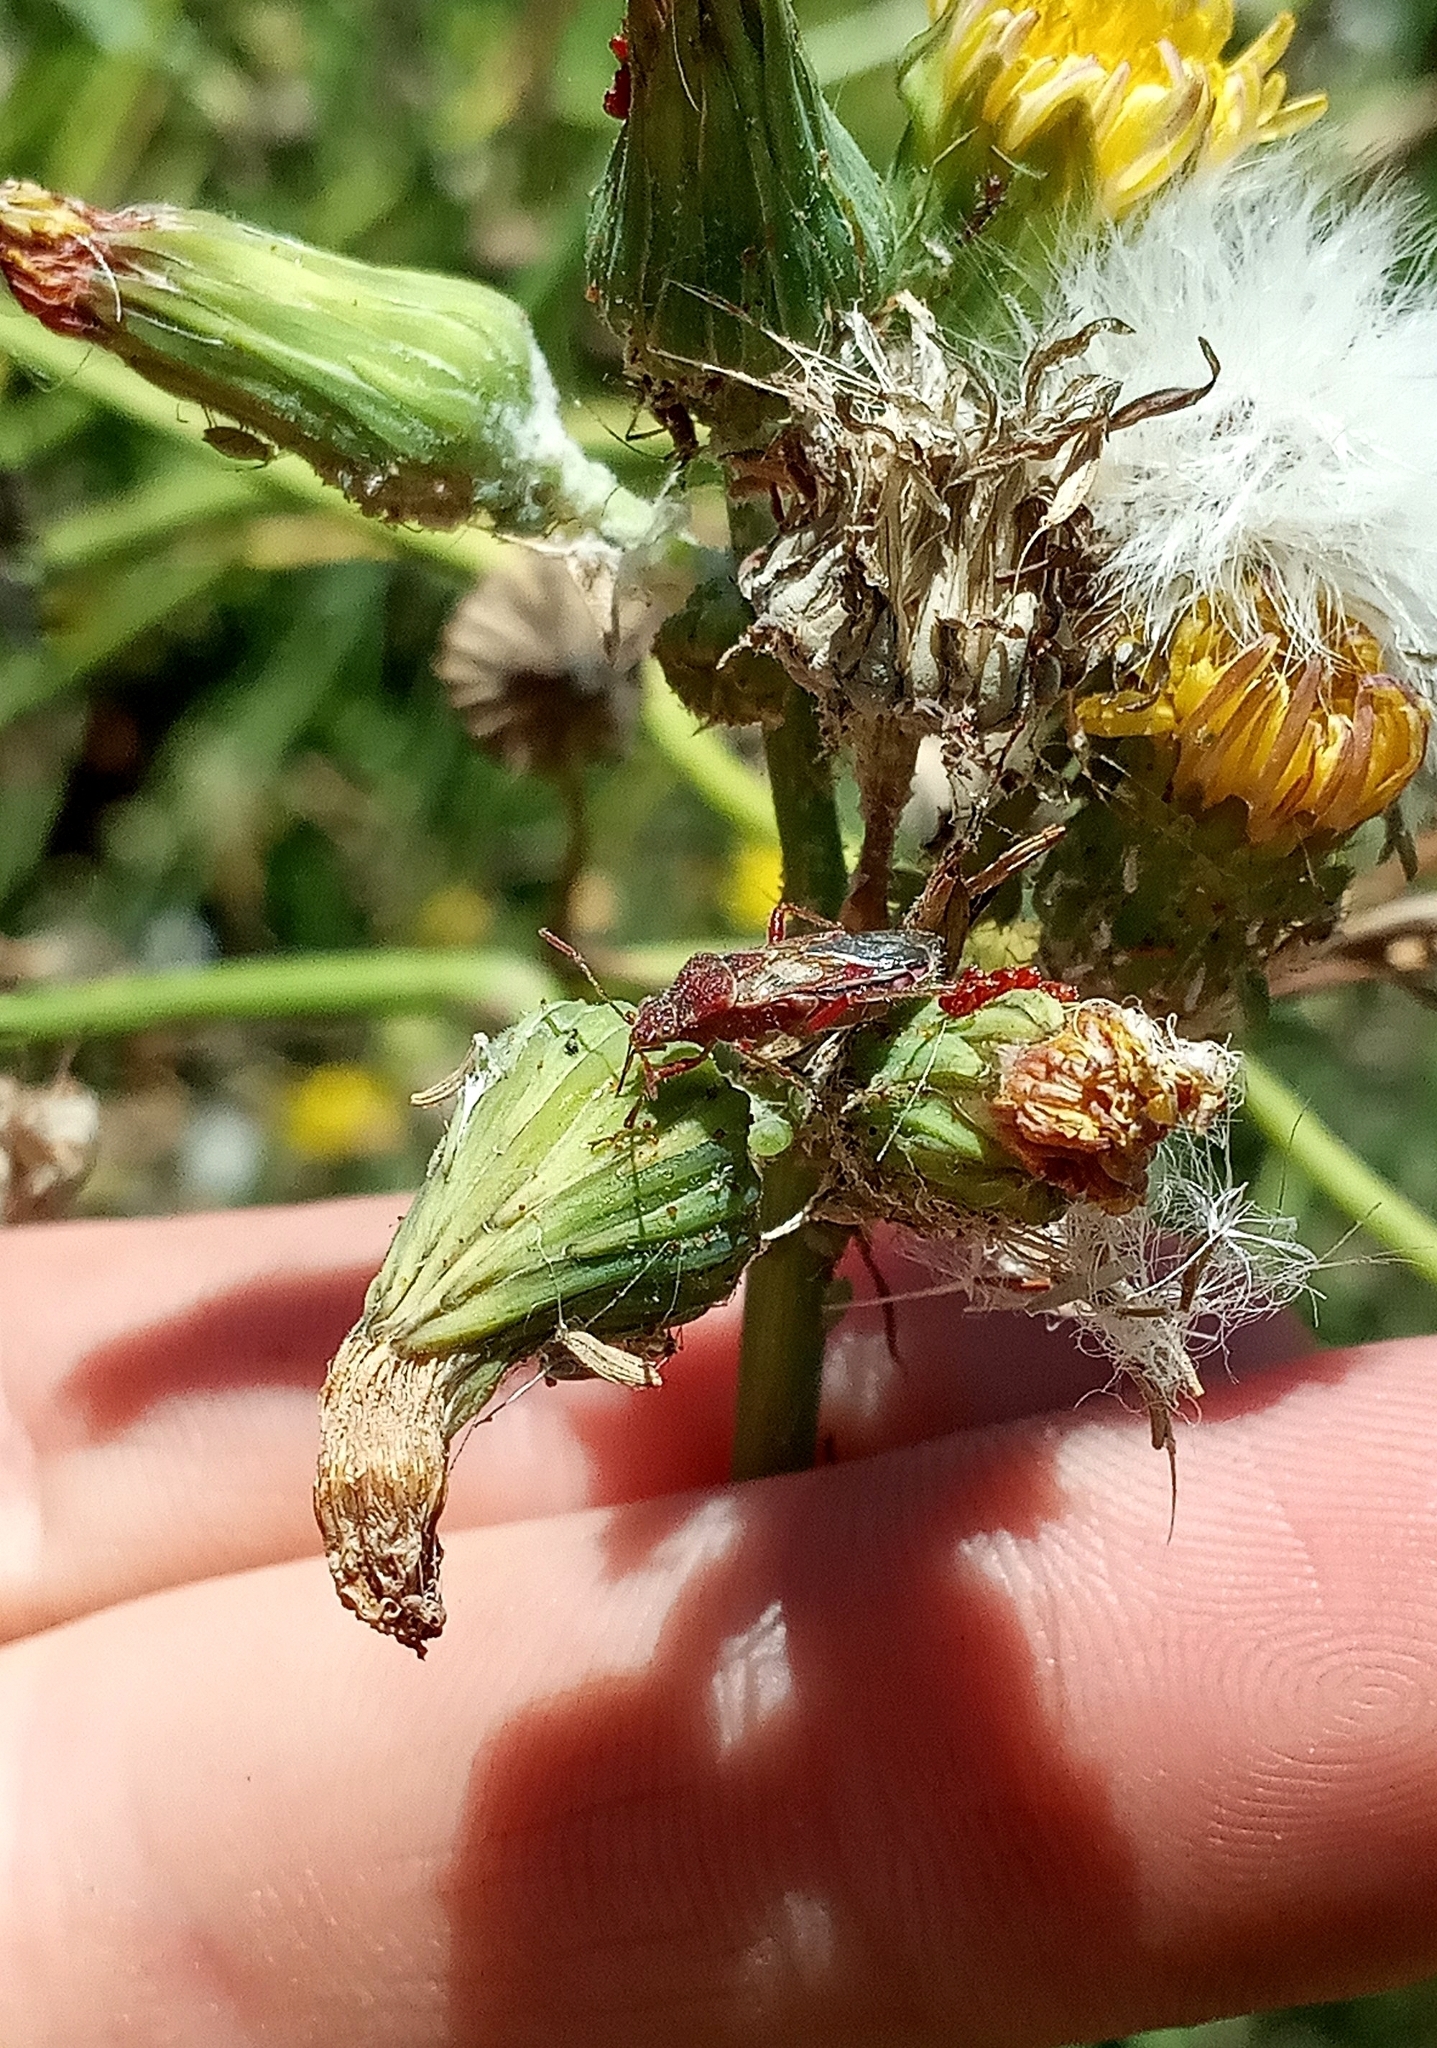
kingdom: Animalia
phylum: Arthropoda
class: Insecta
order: Hemiptera
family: Rhopalidae
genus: Liorhyssus
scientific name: Liorhyssus hyalinus
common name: Scentless plant bug
